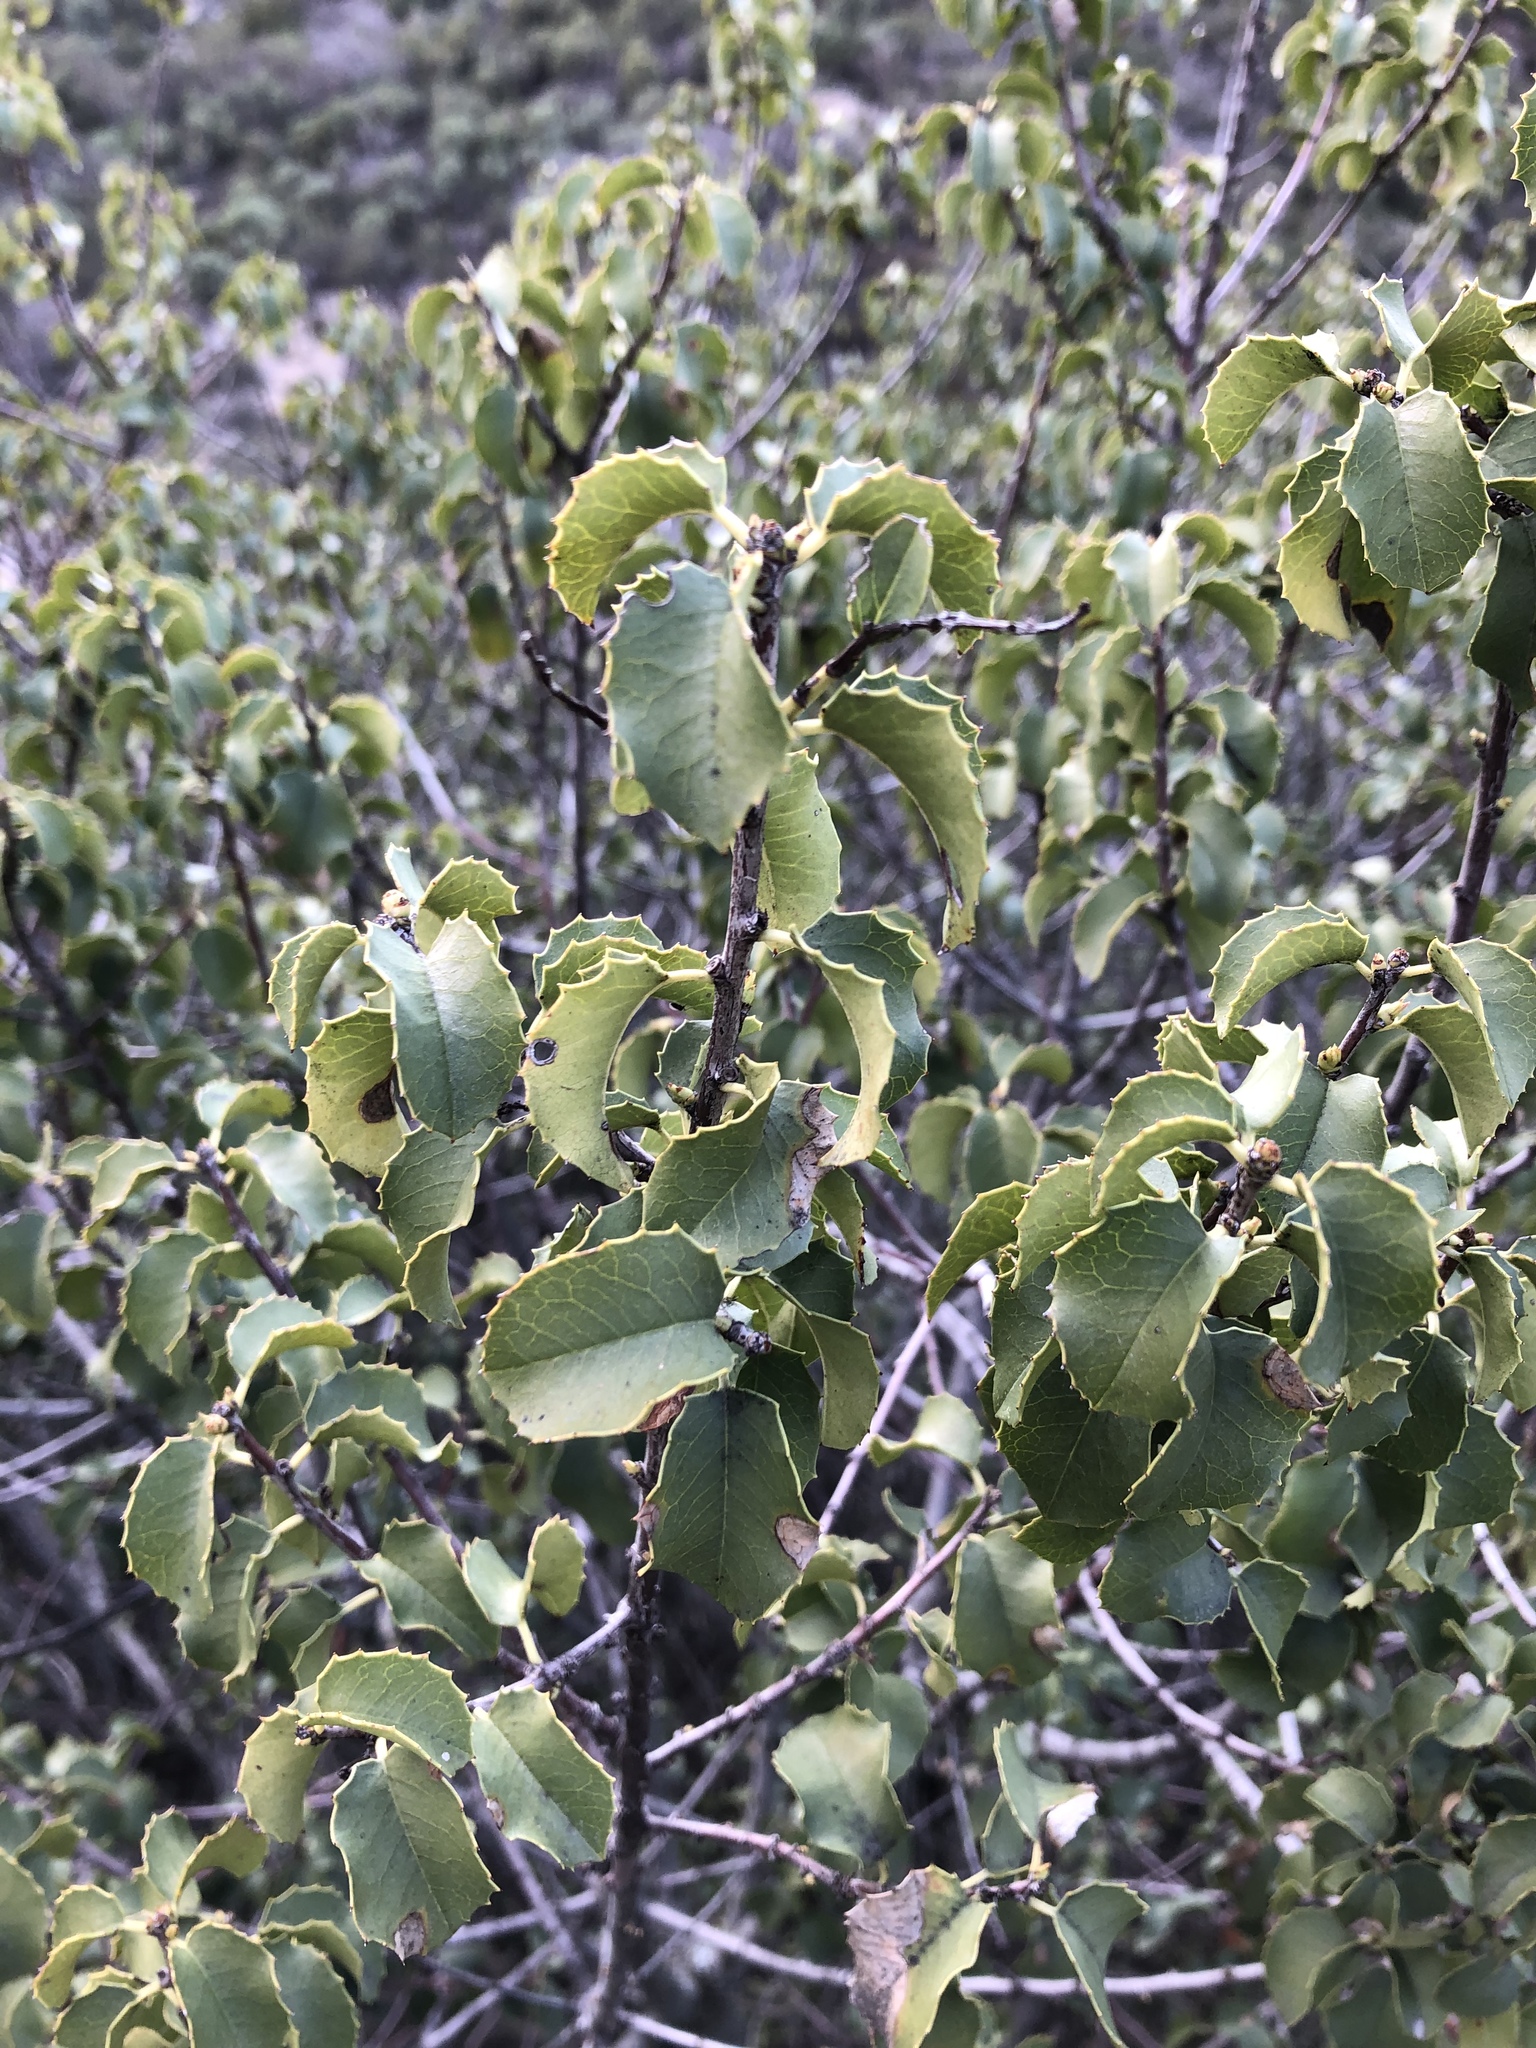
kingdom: Plantae
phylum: Tracheophyta
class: Magnoliopsida
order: Rosales
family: Rosaceae
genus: Prunus
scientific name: Prunus ilicifolia
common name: Hollyleaf cherry
